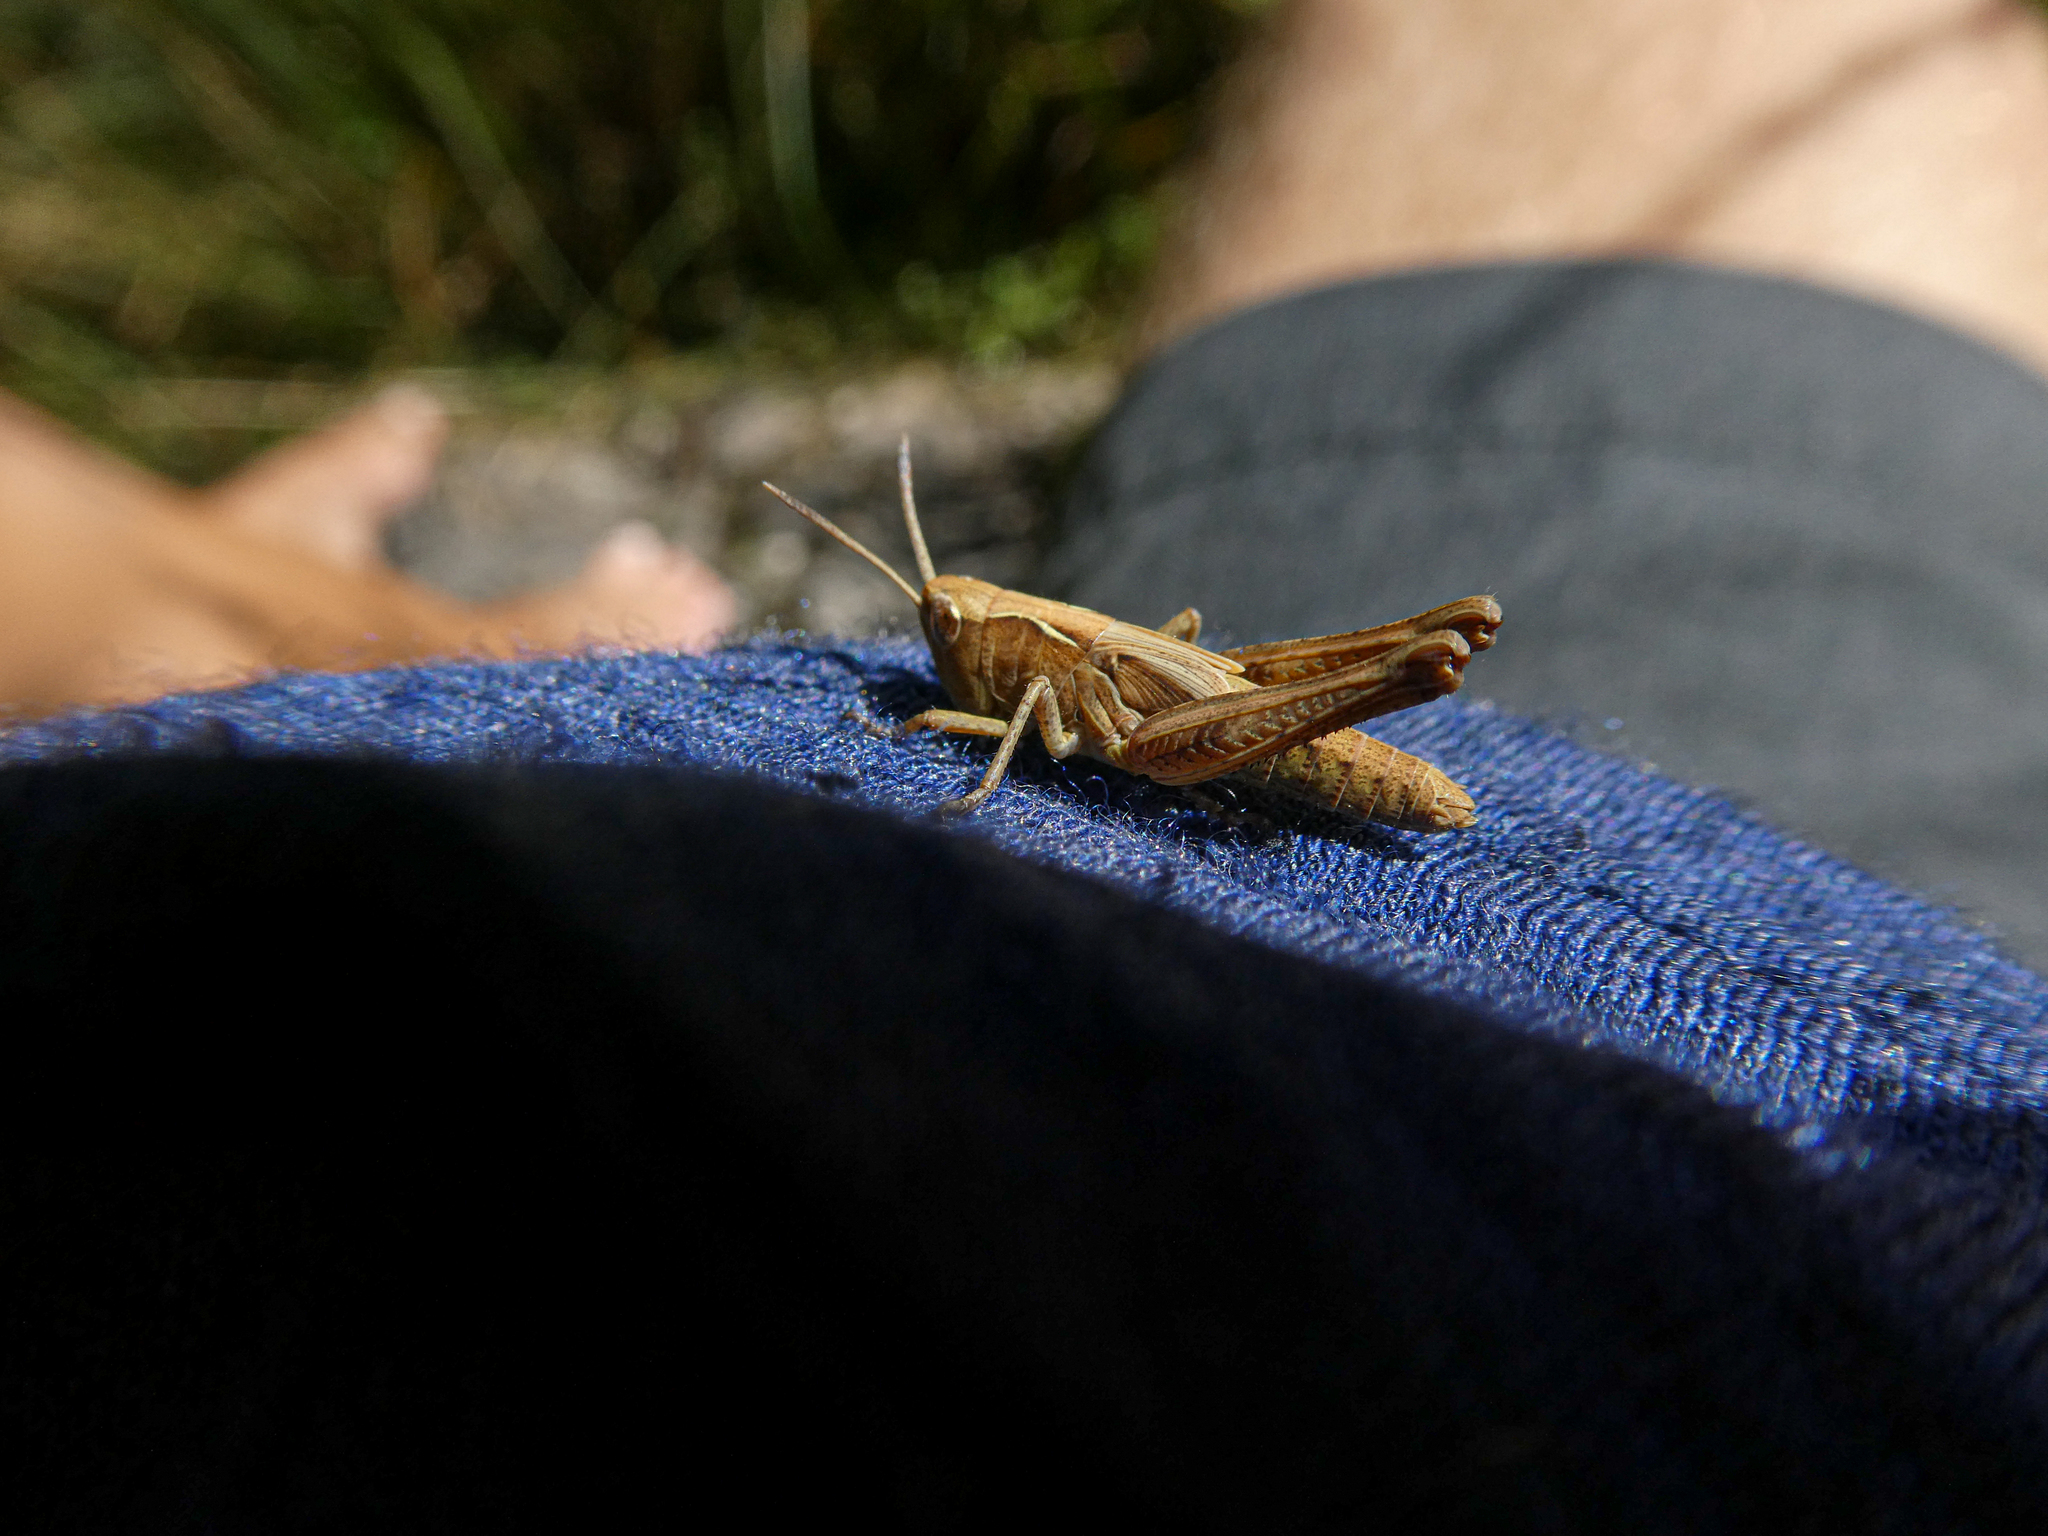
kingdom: Animalia
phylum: Arthropoda
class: Insecta
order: Orthoptera
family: Acrididae
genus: Gomphocerippus
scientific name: Gomphocerippus rufus
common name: Rufous grasshopper
